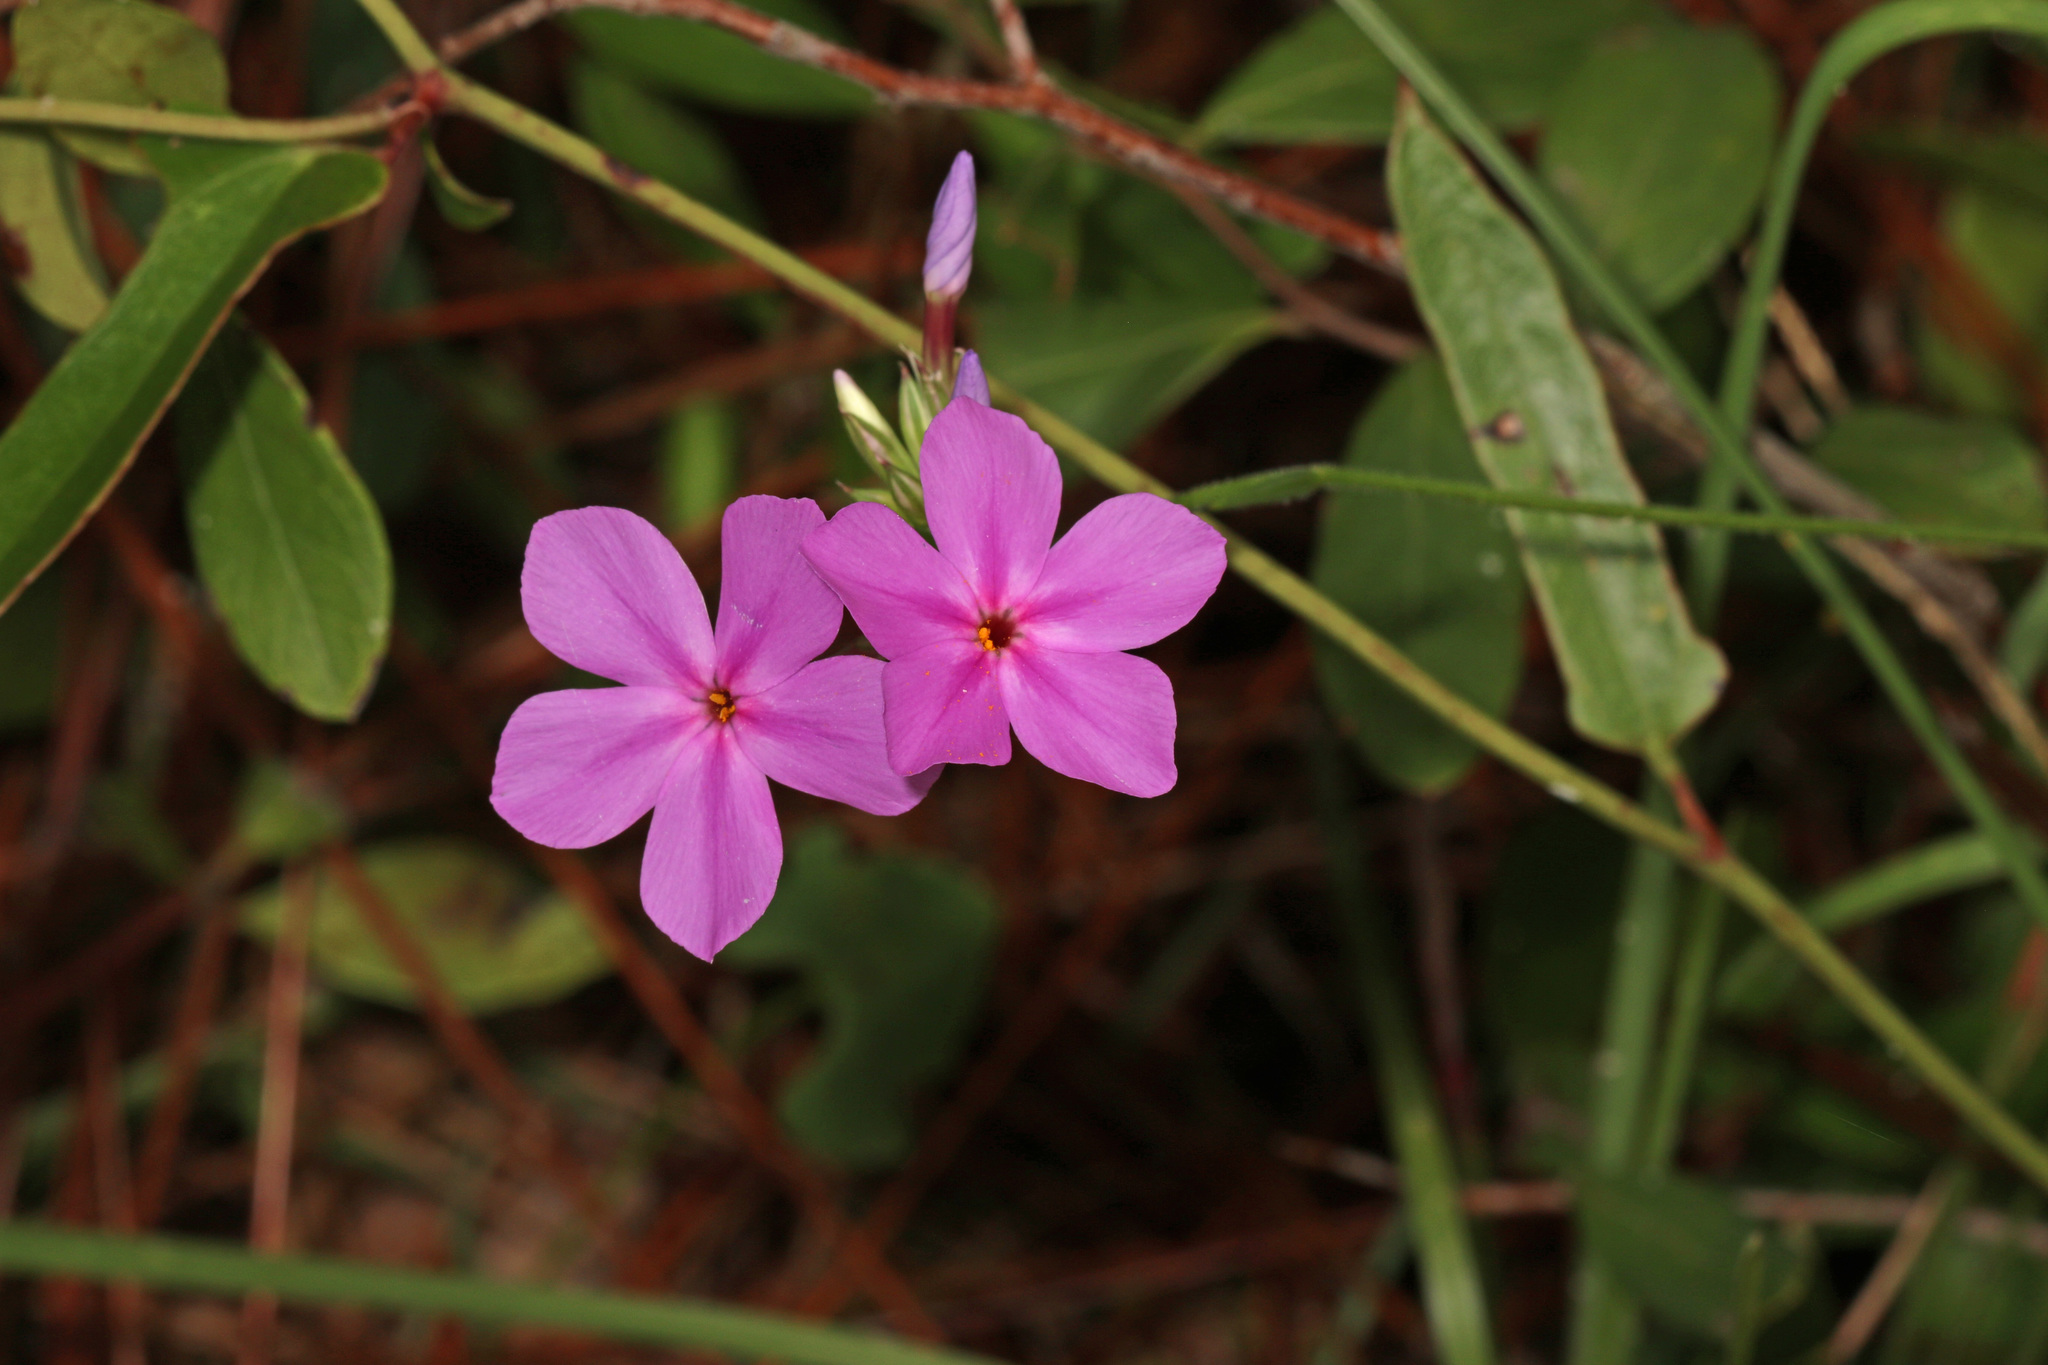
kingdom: Plantae
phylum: Tracheophyta
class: Magnoliopsida
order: Ericales
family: Polemoniaceae
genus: Phlox
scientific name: Phlox carolina
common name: Thick-leaf phlox
